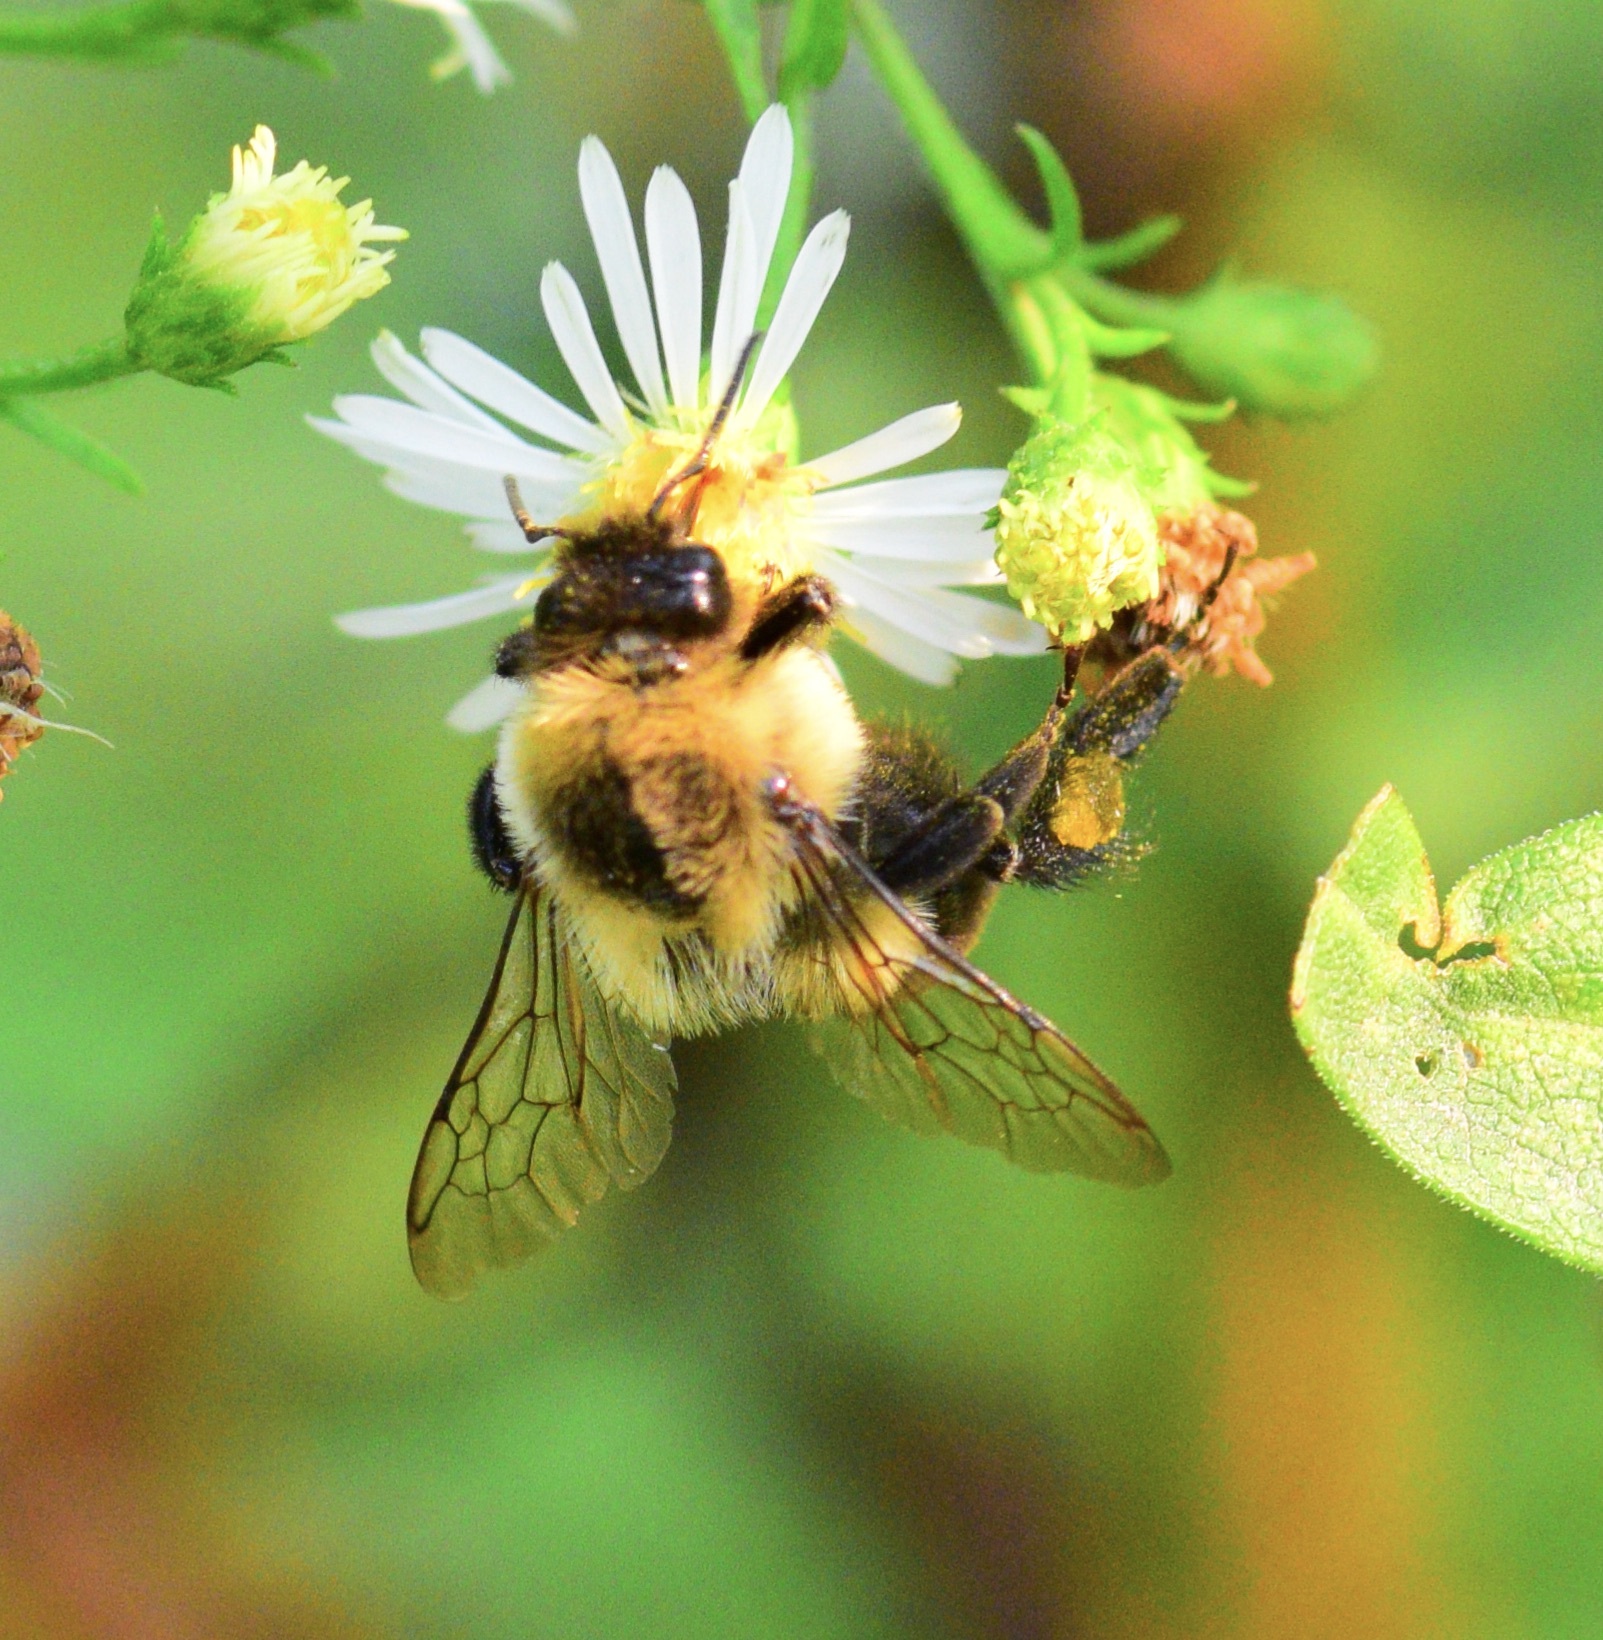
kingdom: Animalia
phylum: Arthropoda
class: Insecta
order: Hymenoptera
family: Apidae
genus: Bombus
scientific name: Bombus impatiens
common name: Common eastern bumble bee
